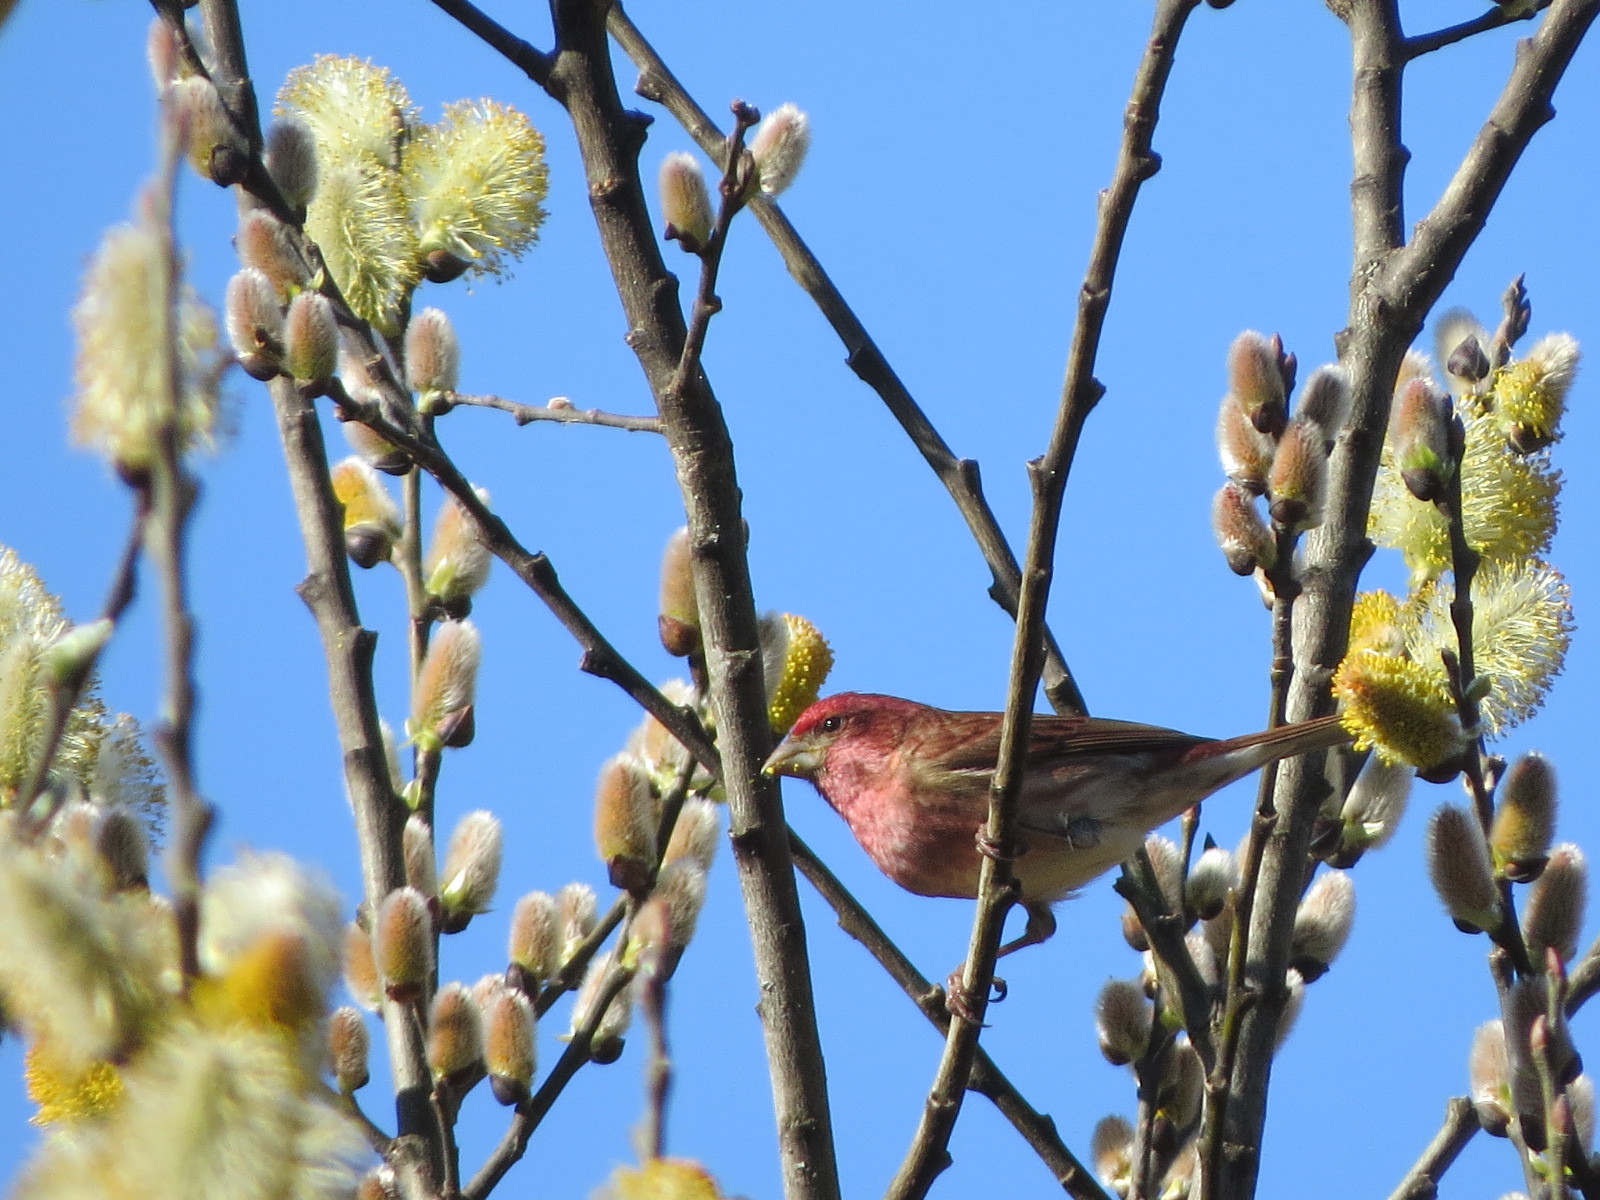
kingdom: Animalia
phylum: Chordata
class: Aves
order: Passeriformes
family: Fringillidae
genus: Haemorhous
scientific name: Haemorhous purpureus
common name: Purple finch
